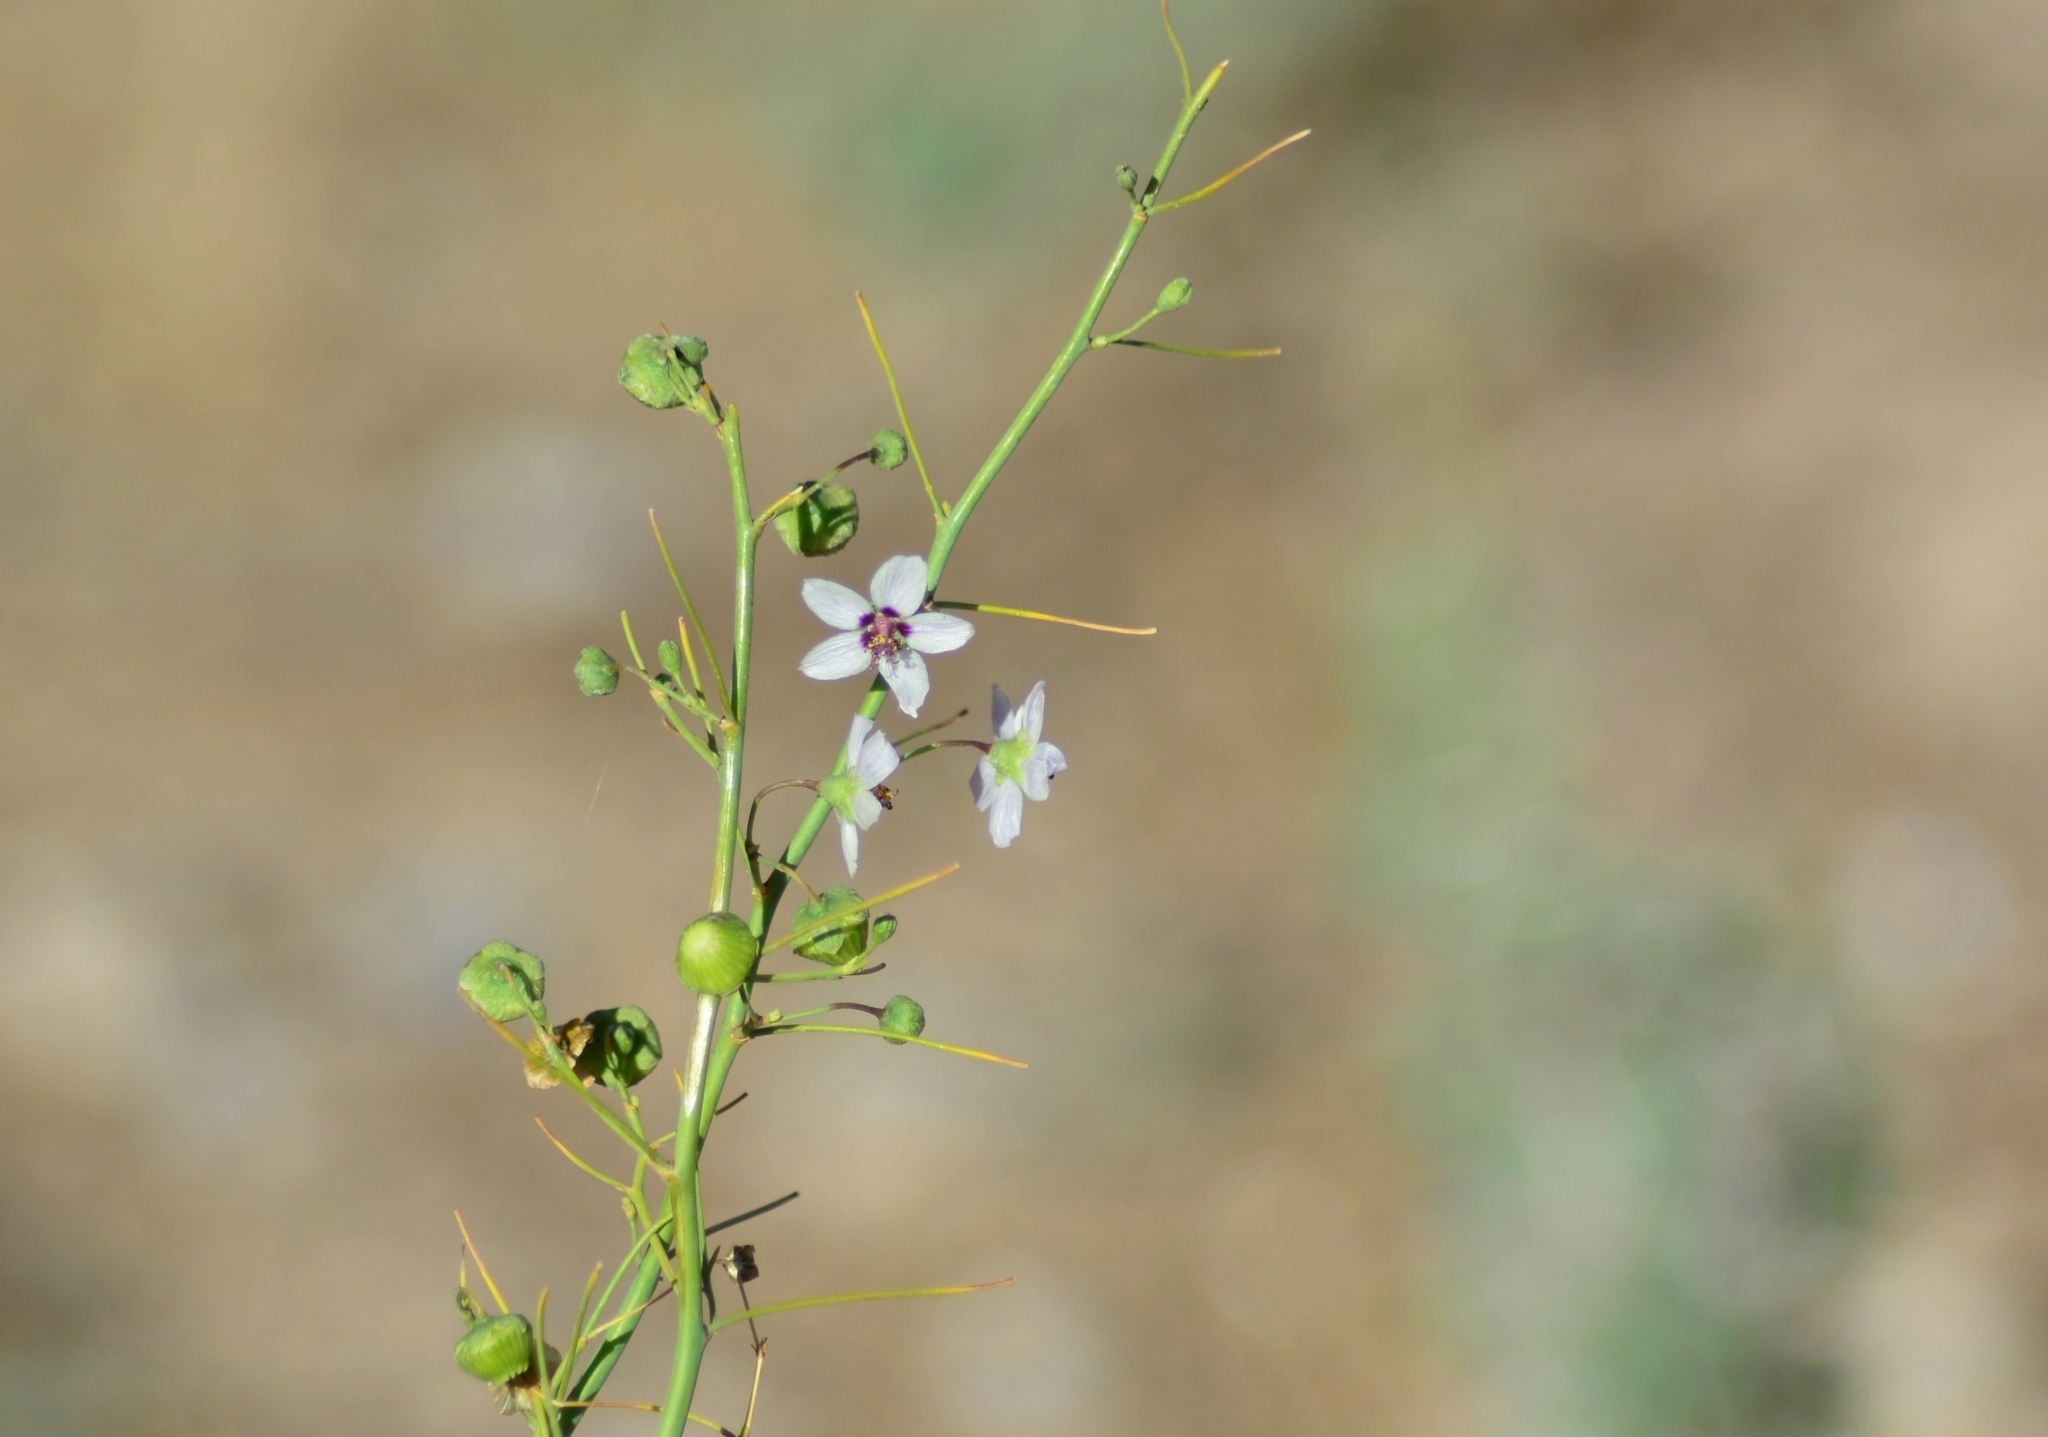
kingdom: Plantae
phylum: Tracheophyta
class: Magnoliopsida
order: Malvales
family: Malvaceae
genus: Lecanophora
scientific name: Lecanophora ecristata
